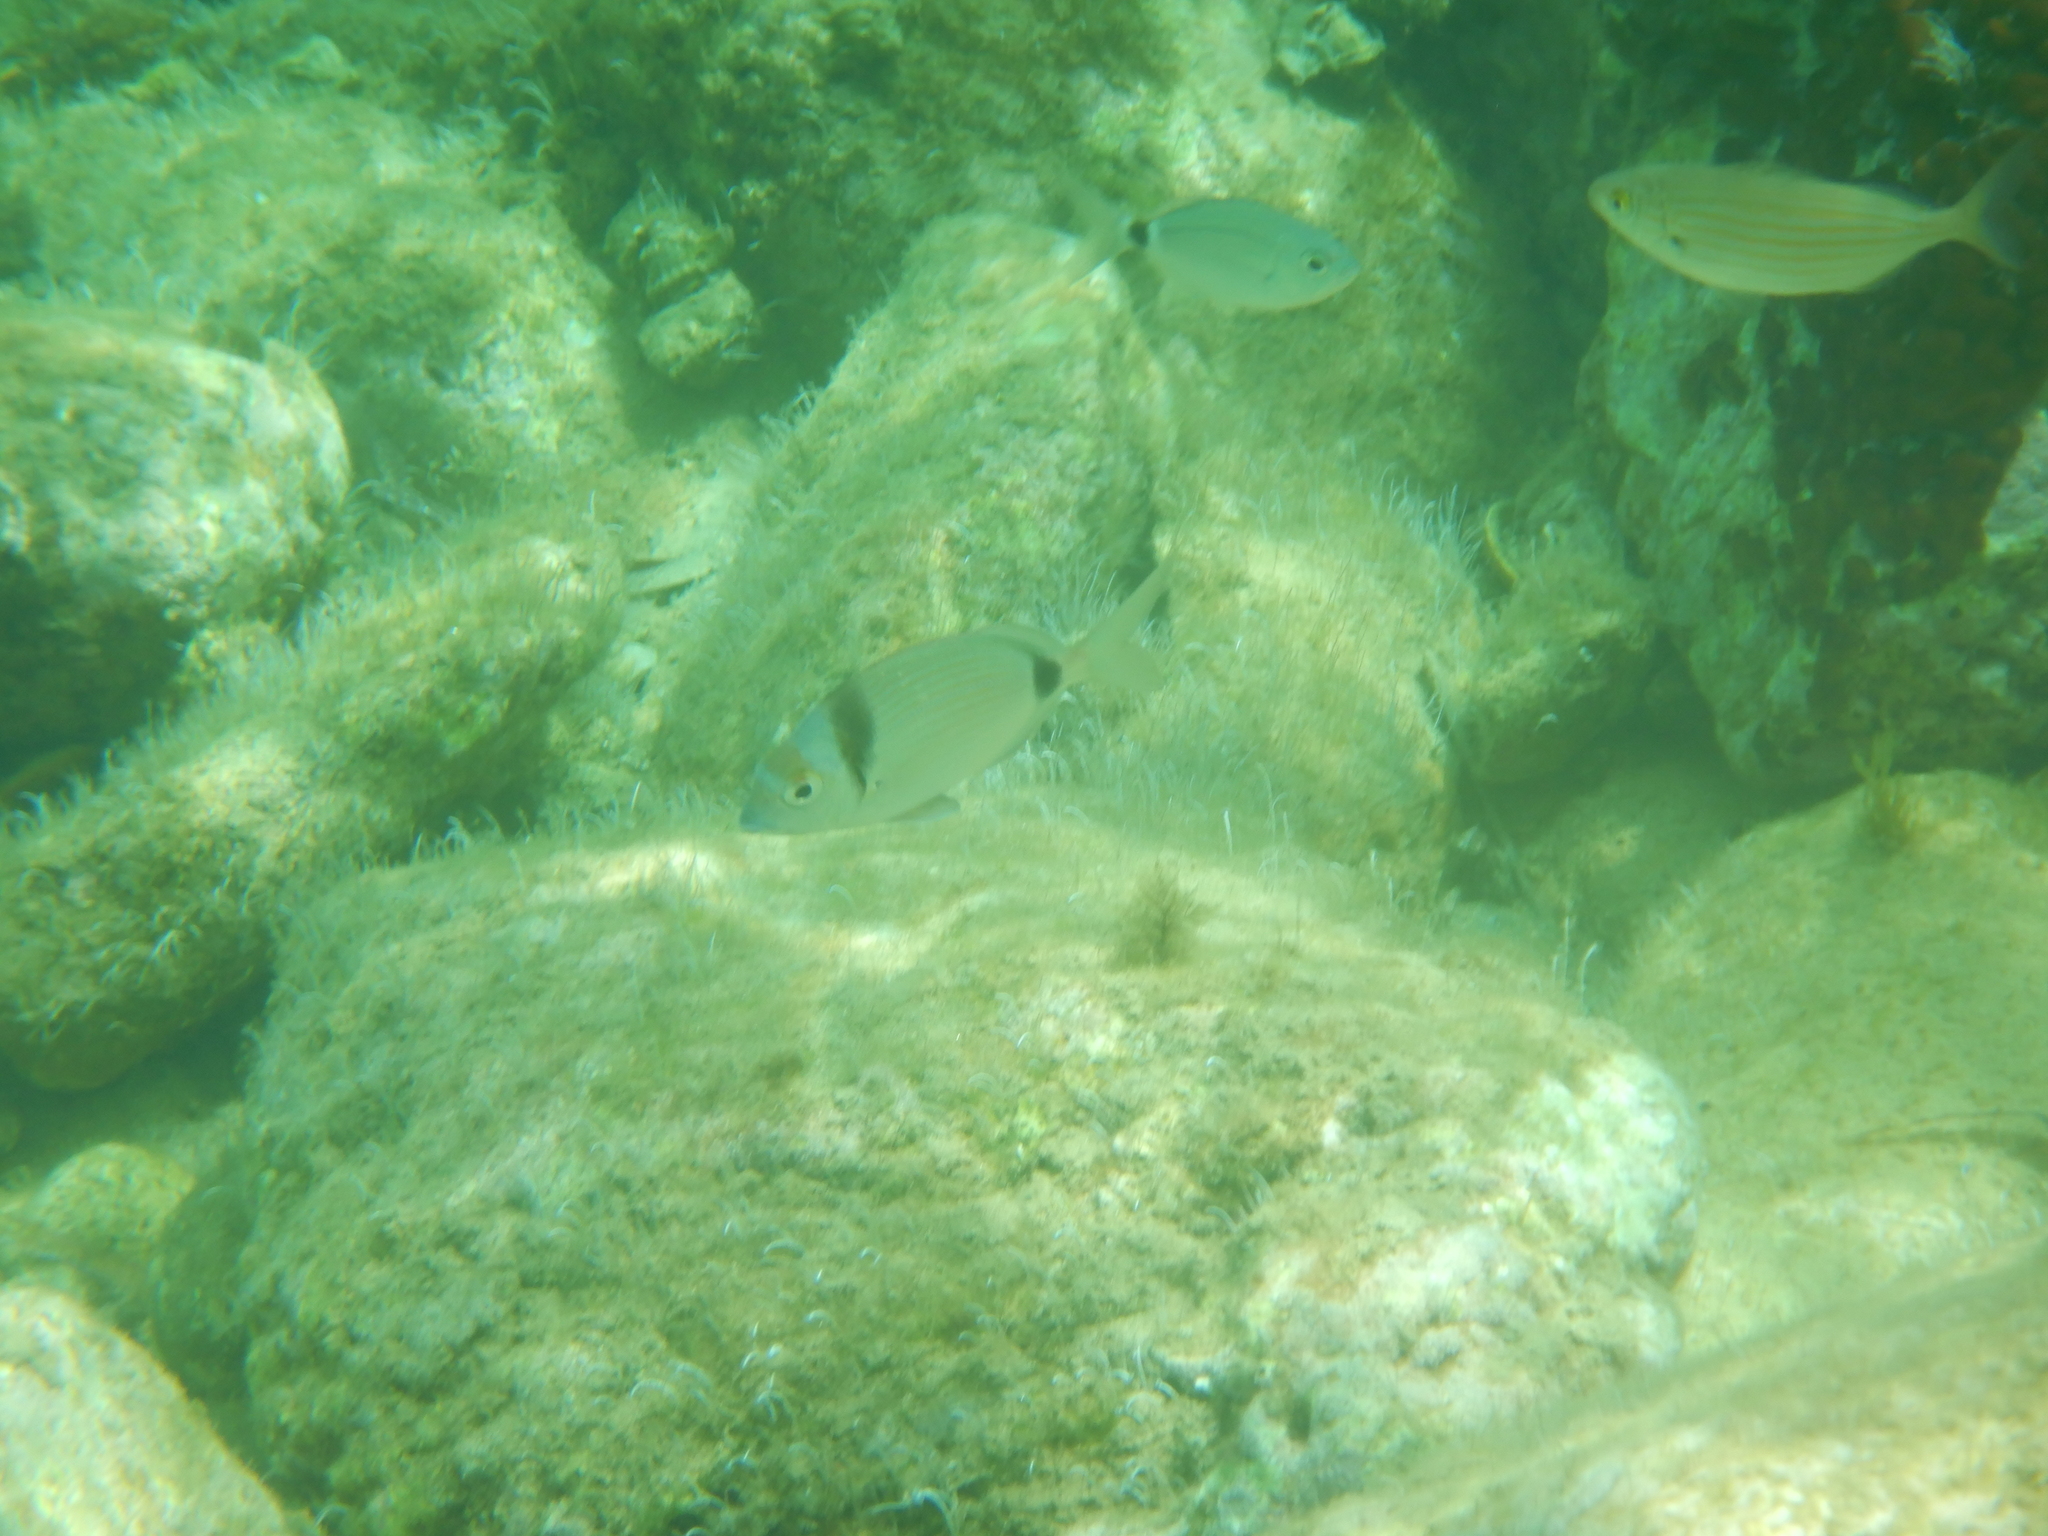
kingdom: Animalia
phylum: Chordata
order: Perciformes
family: Sparidae
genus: Diplodus
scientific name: Diplodus vulgaris
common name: Common two-banded seabream
